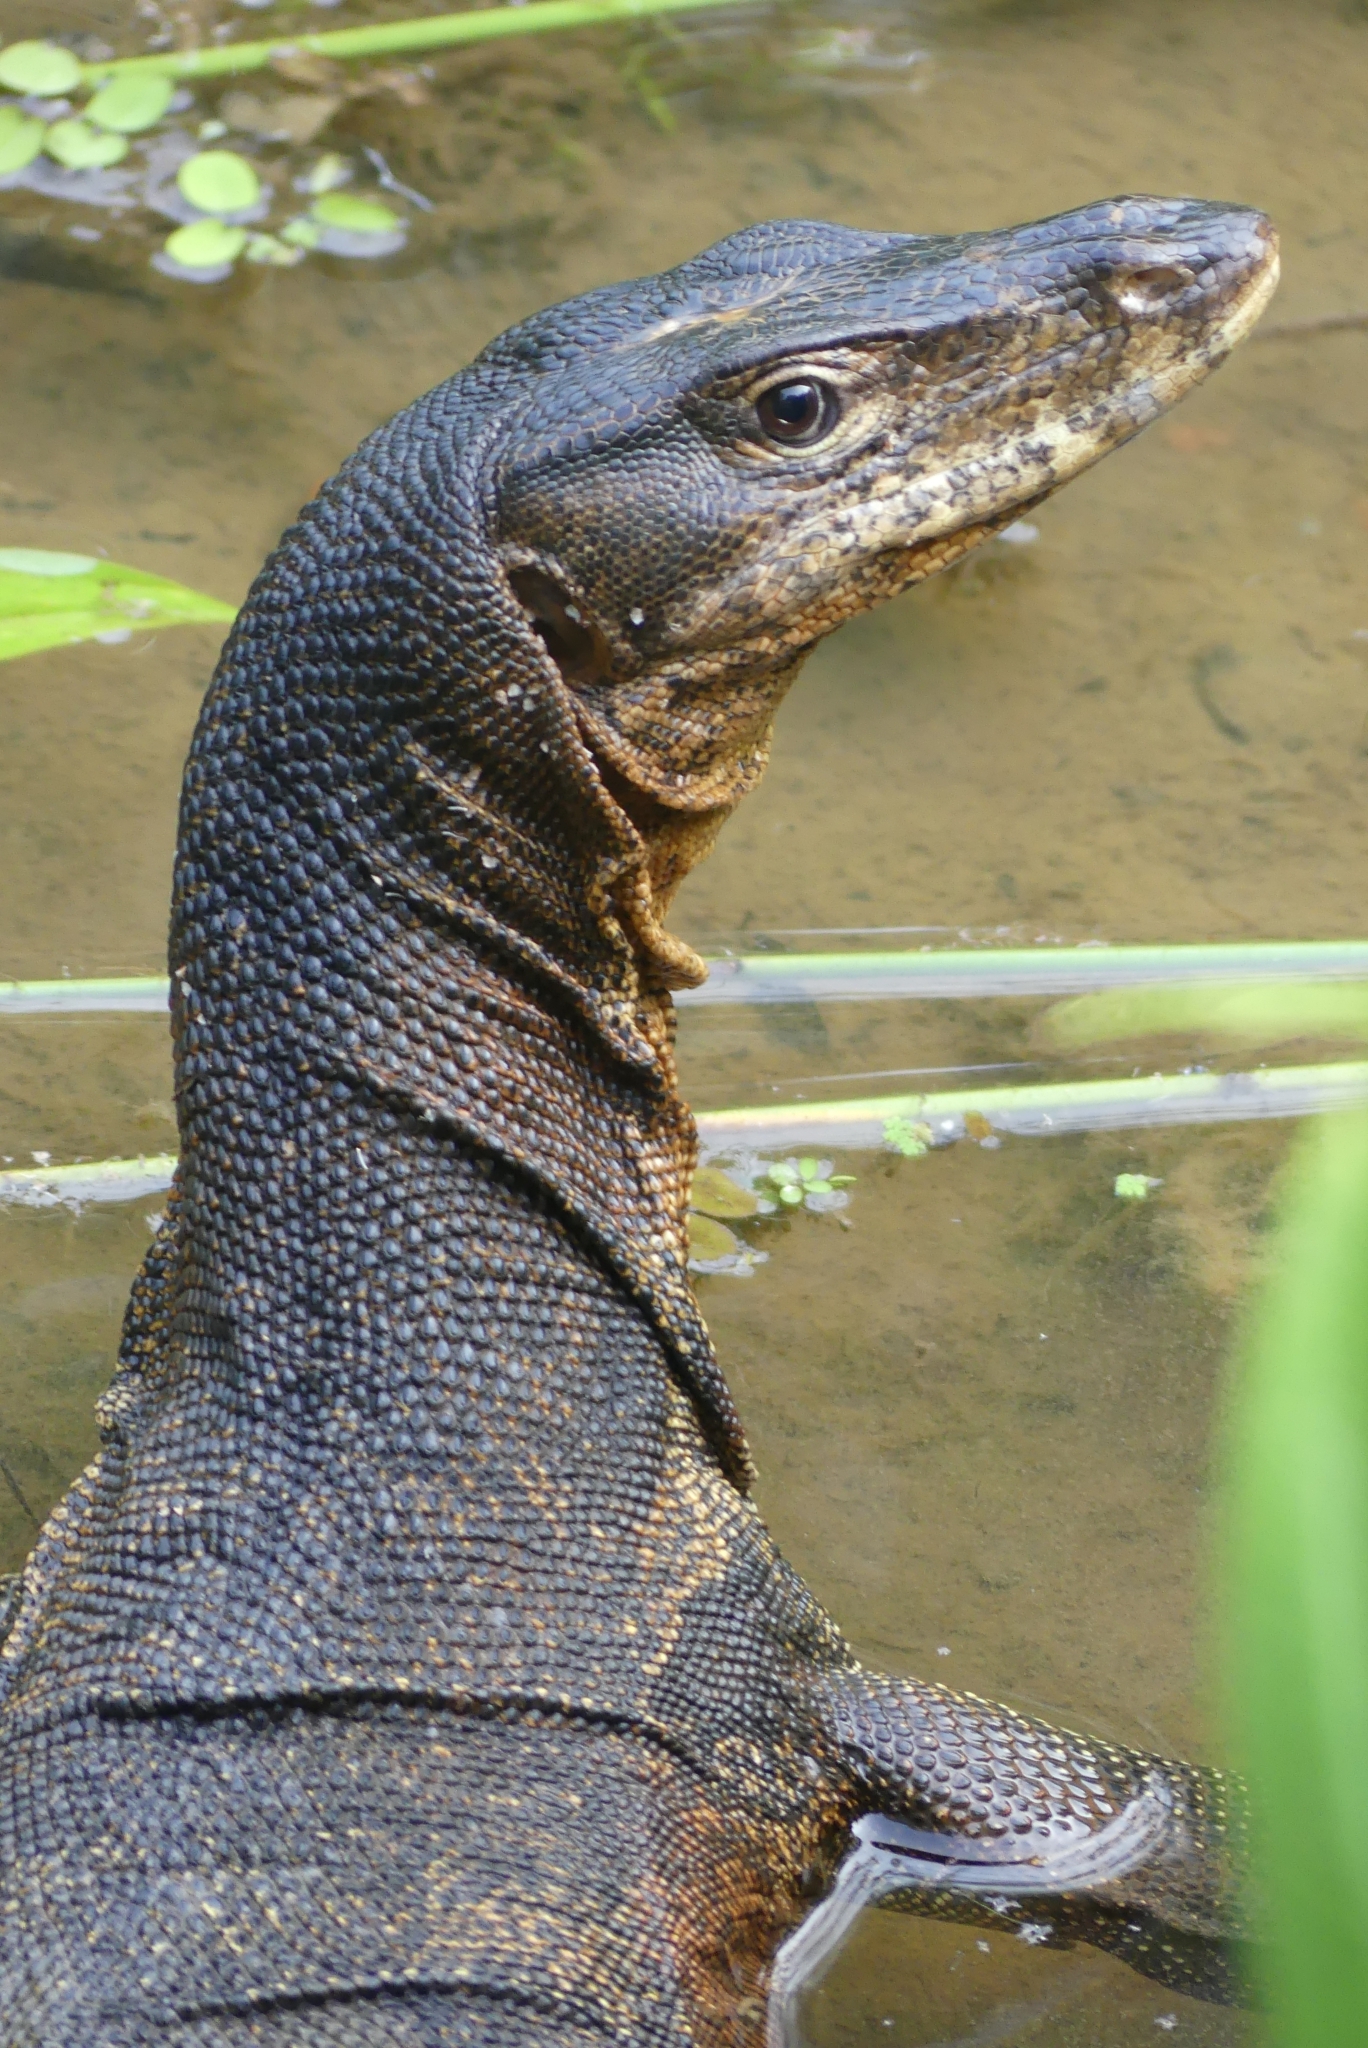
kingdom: Animalia
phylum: Chordata
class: Squamata
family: Varanidae
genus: Varanus
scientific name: Varanus salvator
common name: Common water monitor
